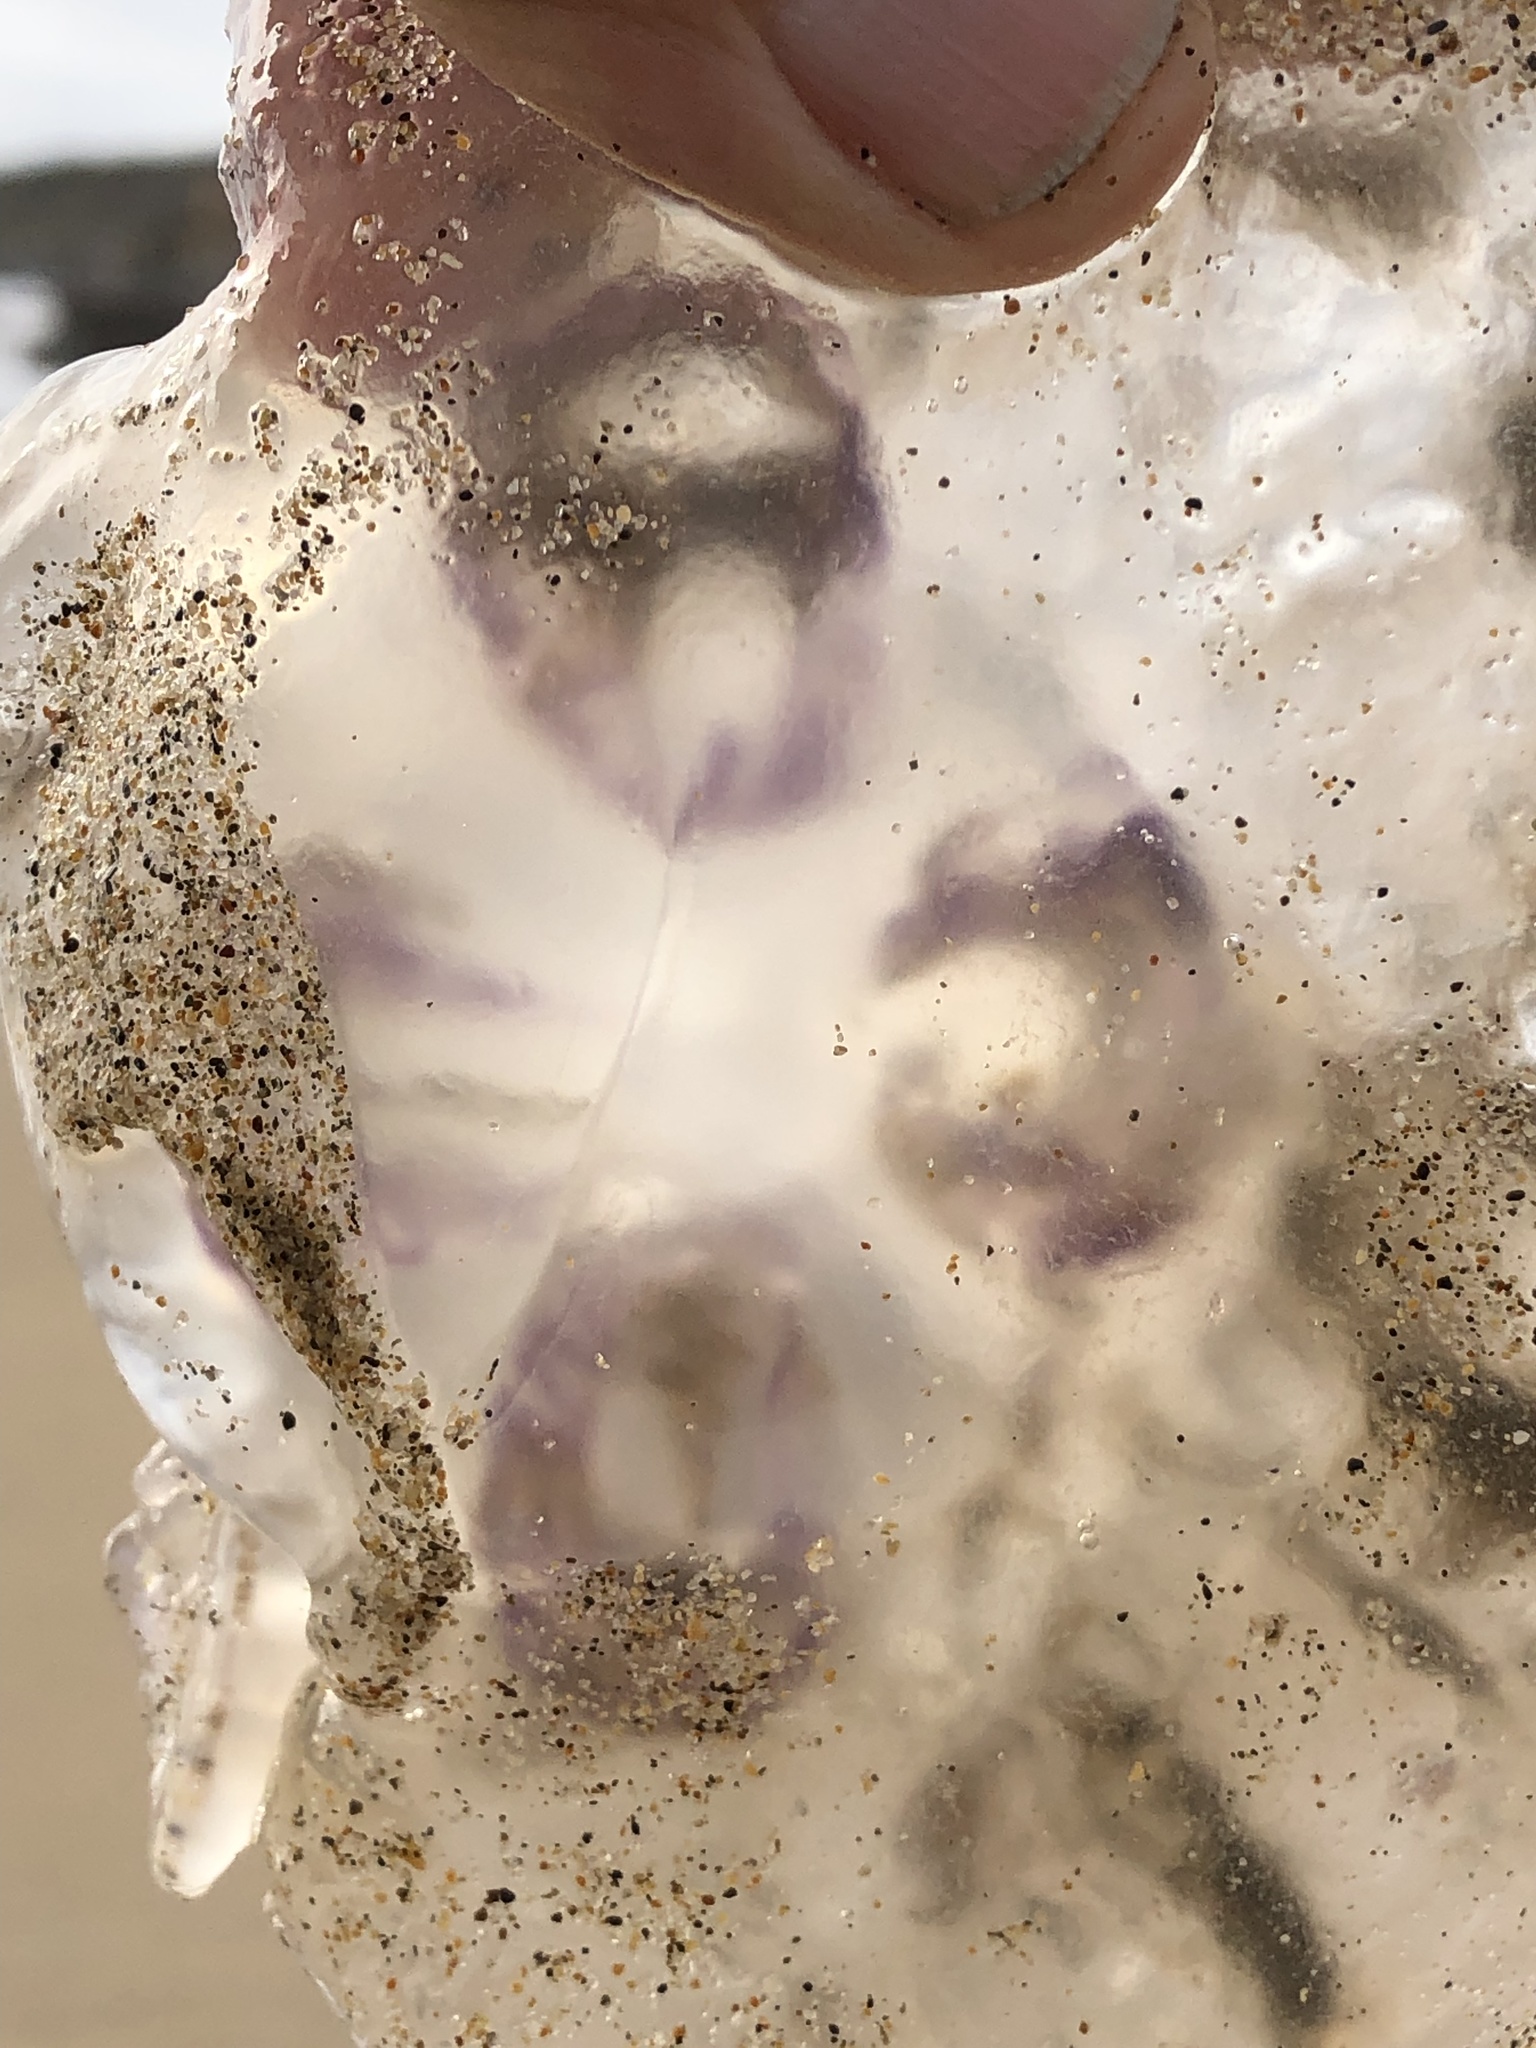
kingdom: Animalia
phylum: Cnidaria
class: Scyphozoa
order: Semaeostomeae
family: Ulmaridae
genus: Aurelia
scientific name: Aurelia labiata
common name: Pacific moon jelly
